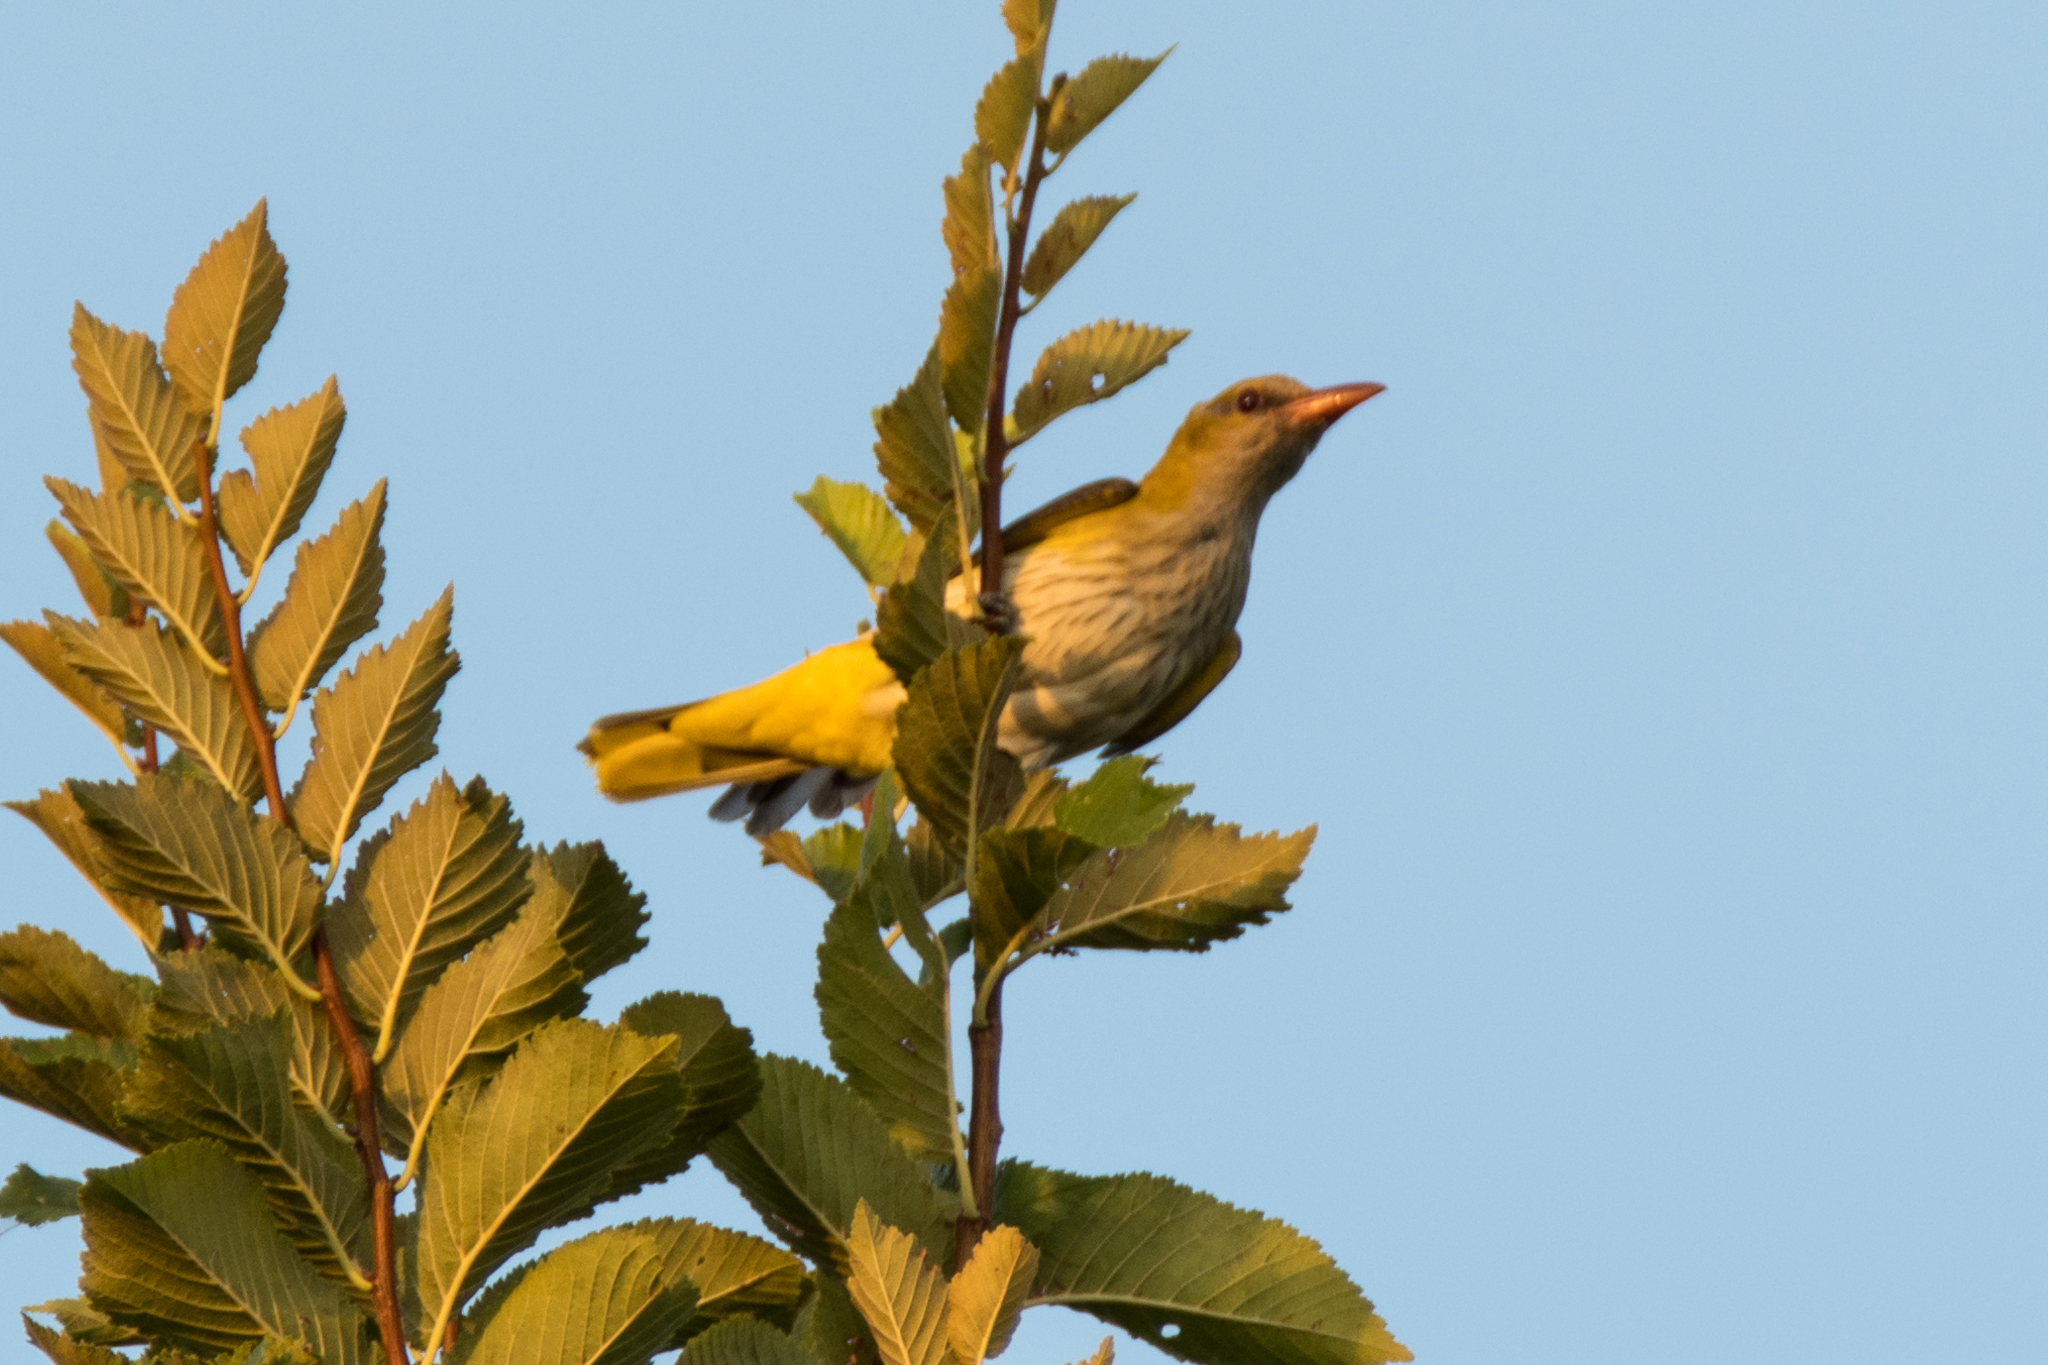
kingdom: Animalia
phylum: Chordata
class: Aves
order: Passeriformes
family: Oriolidae
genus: Oriolus
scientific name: Oriolus oriolus
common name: Eurasian golden oriole
